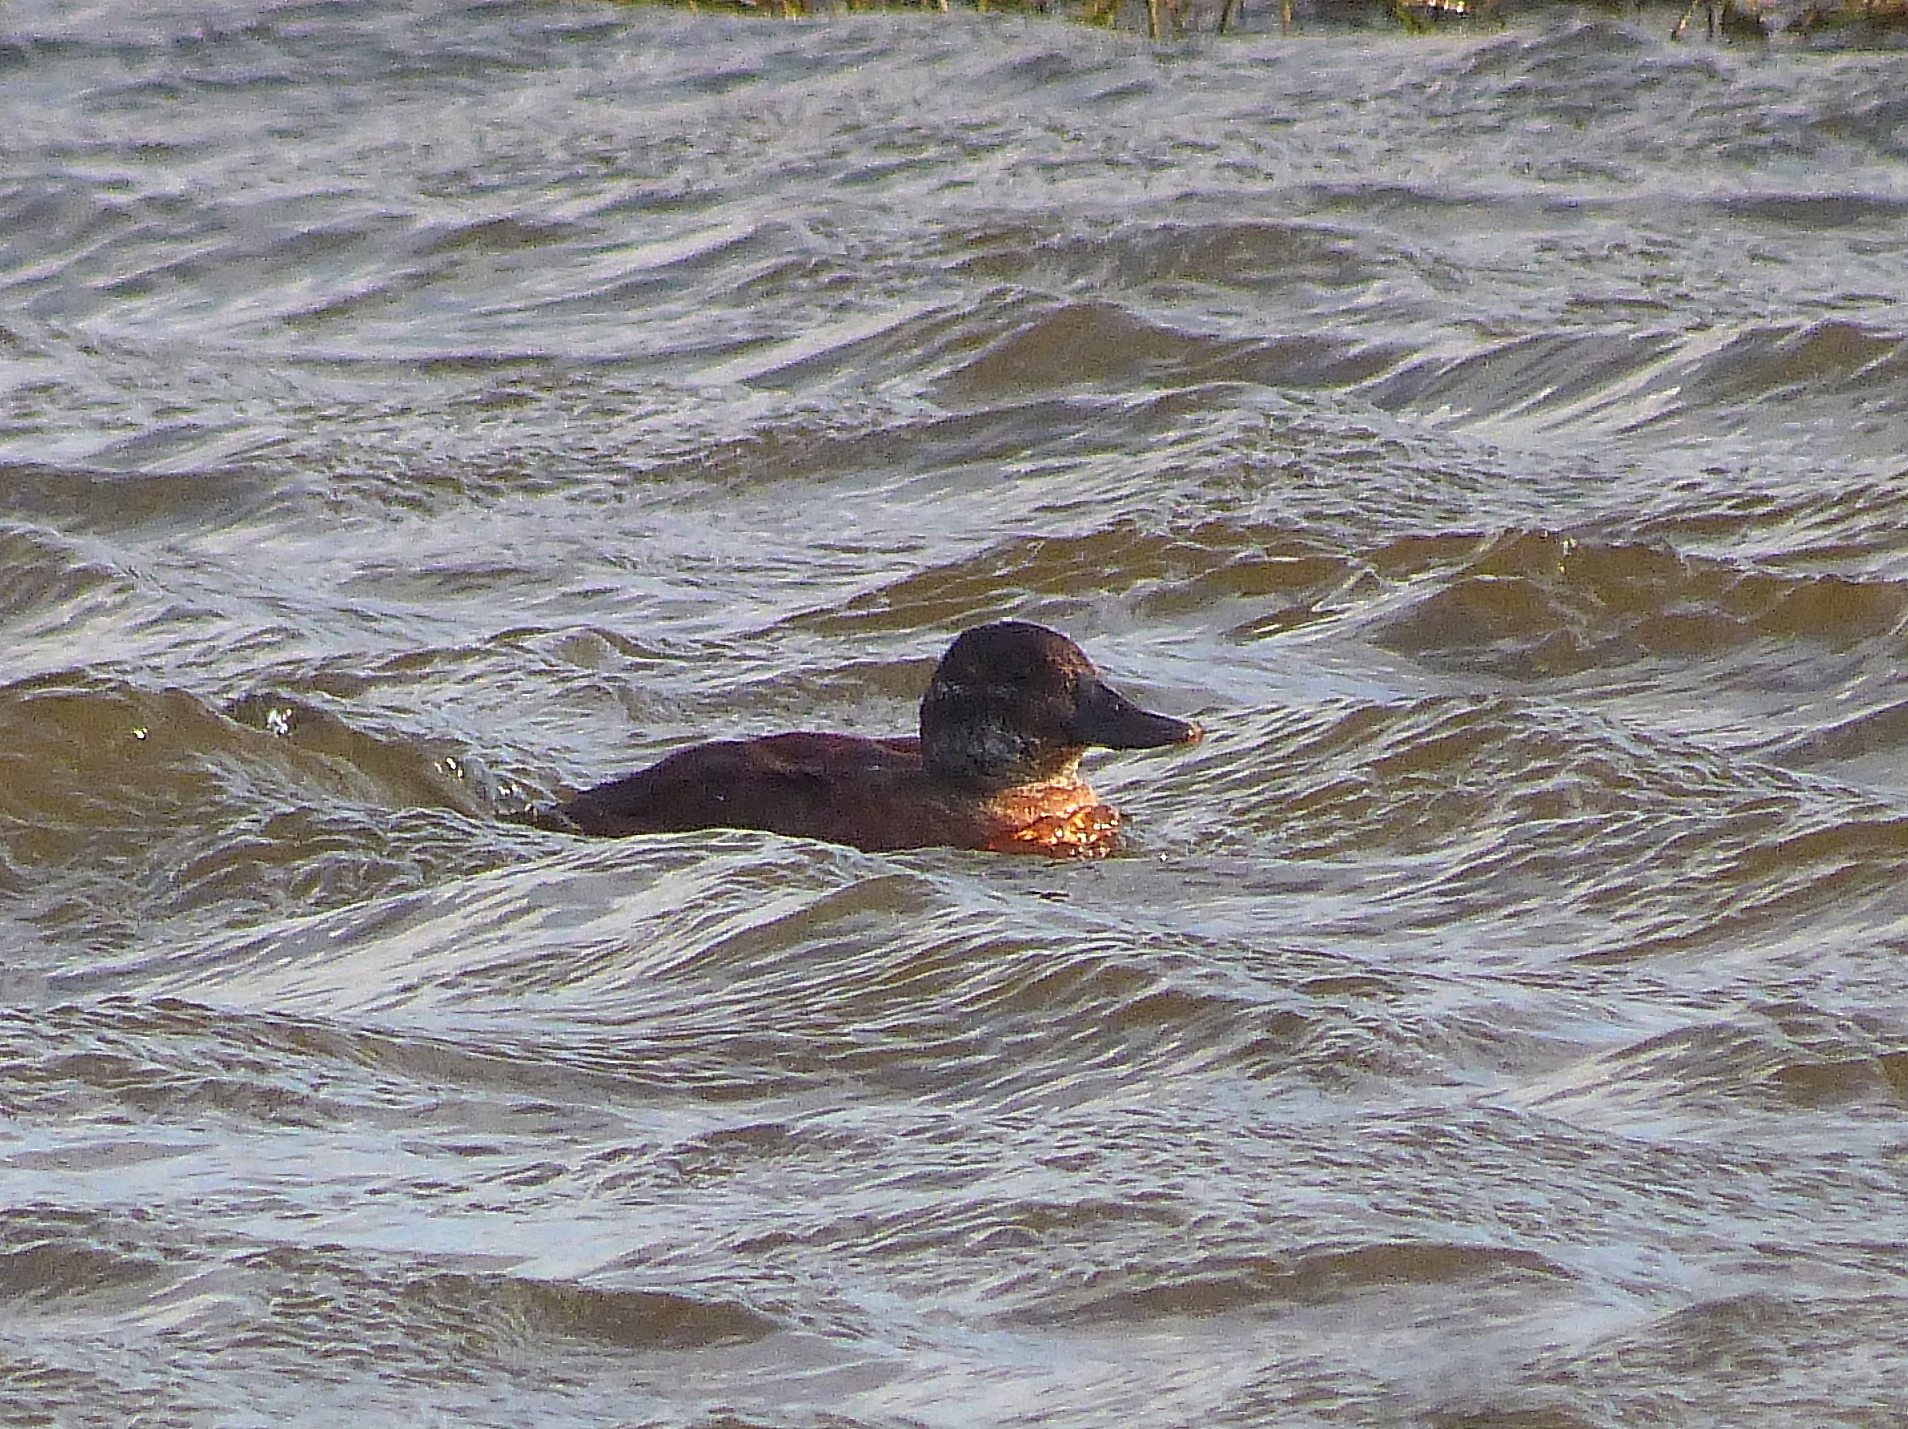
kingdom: Animalia
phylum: Chordata
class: Aves
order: Anseriformes
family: Anatidae
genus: Oxyura
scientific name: Oxyura vittata
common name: Lake duck
